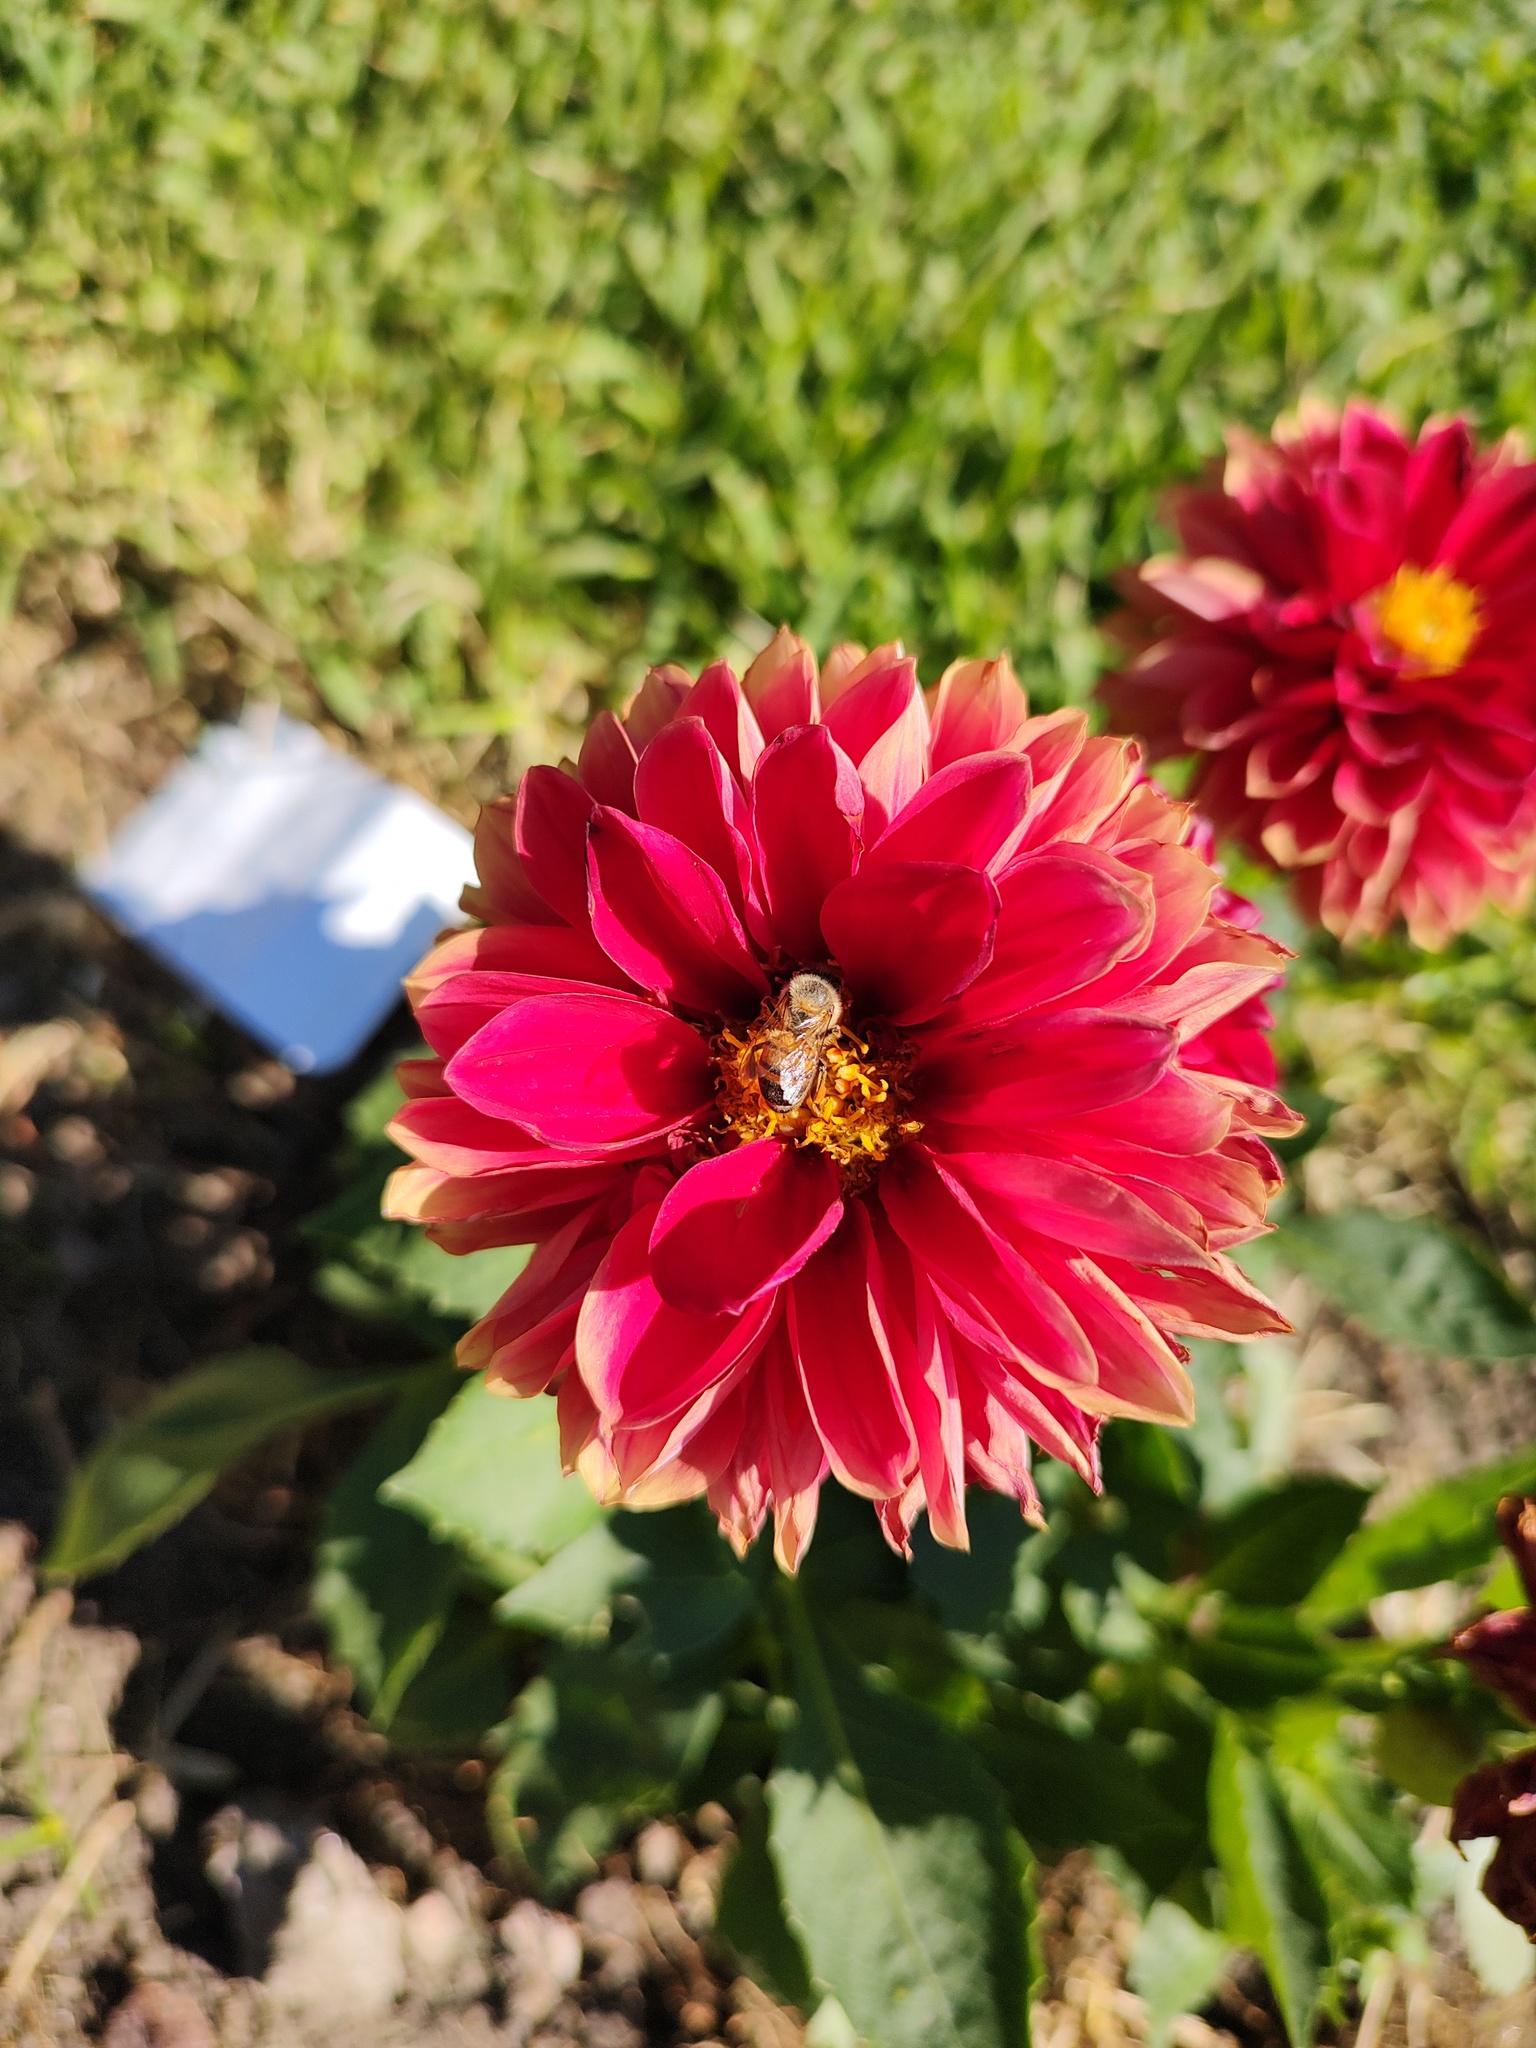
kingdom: Animalia
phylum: Arthropoda
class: Insecta
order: Hymenoptera
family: Apidae
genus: Apis
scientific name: Apis mellifera
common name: Honey bee
